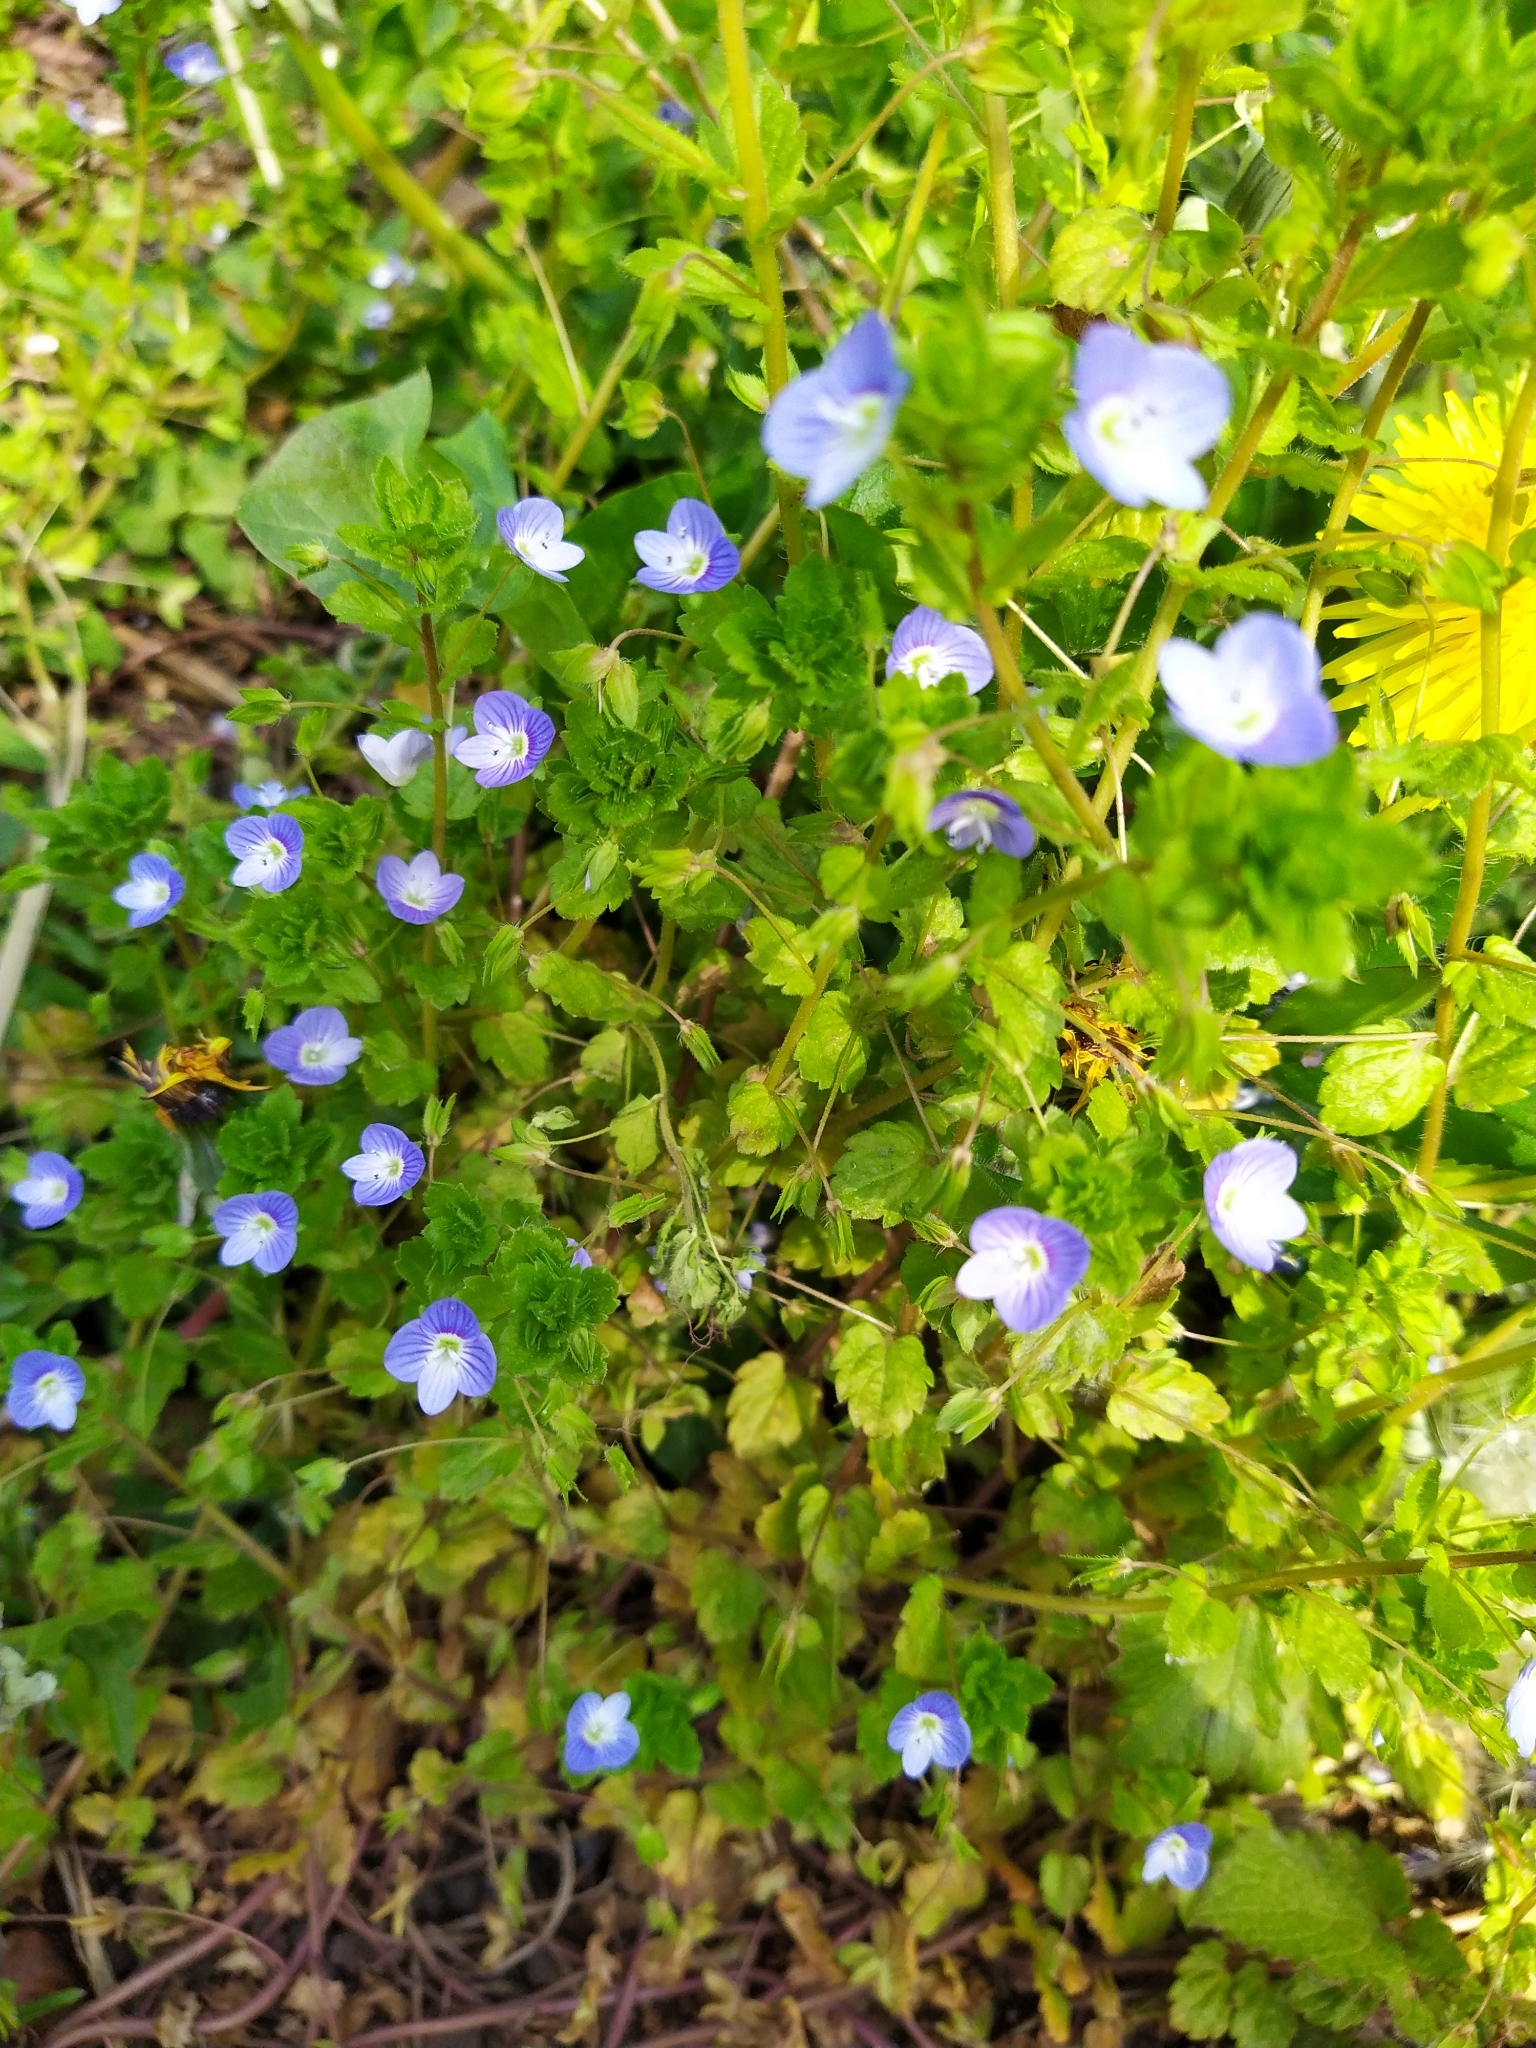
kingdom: Plantae
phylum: Tracheophyta
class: Magnoliopsida
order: Lamiales
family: Plantaginaceae
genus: Veronica
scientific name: Veronica persica
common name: Common field-speedwell
